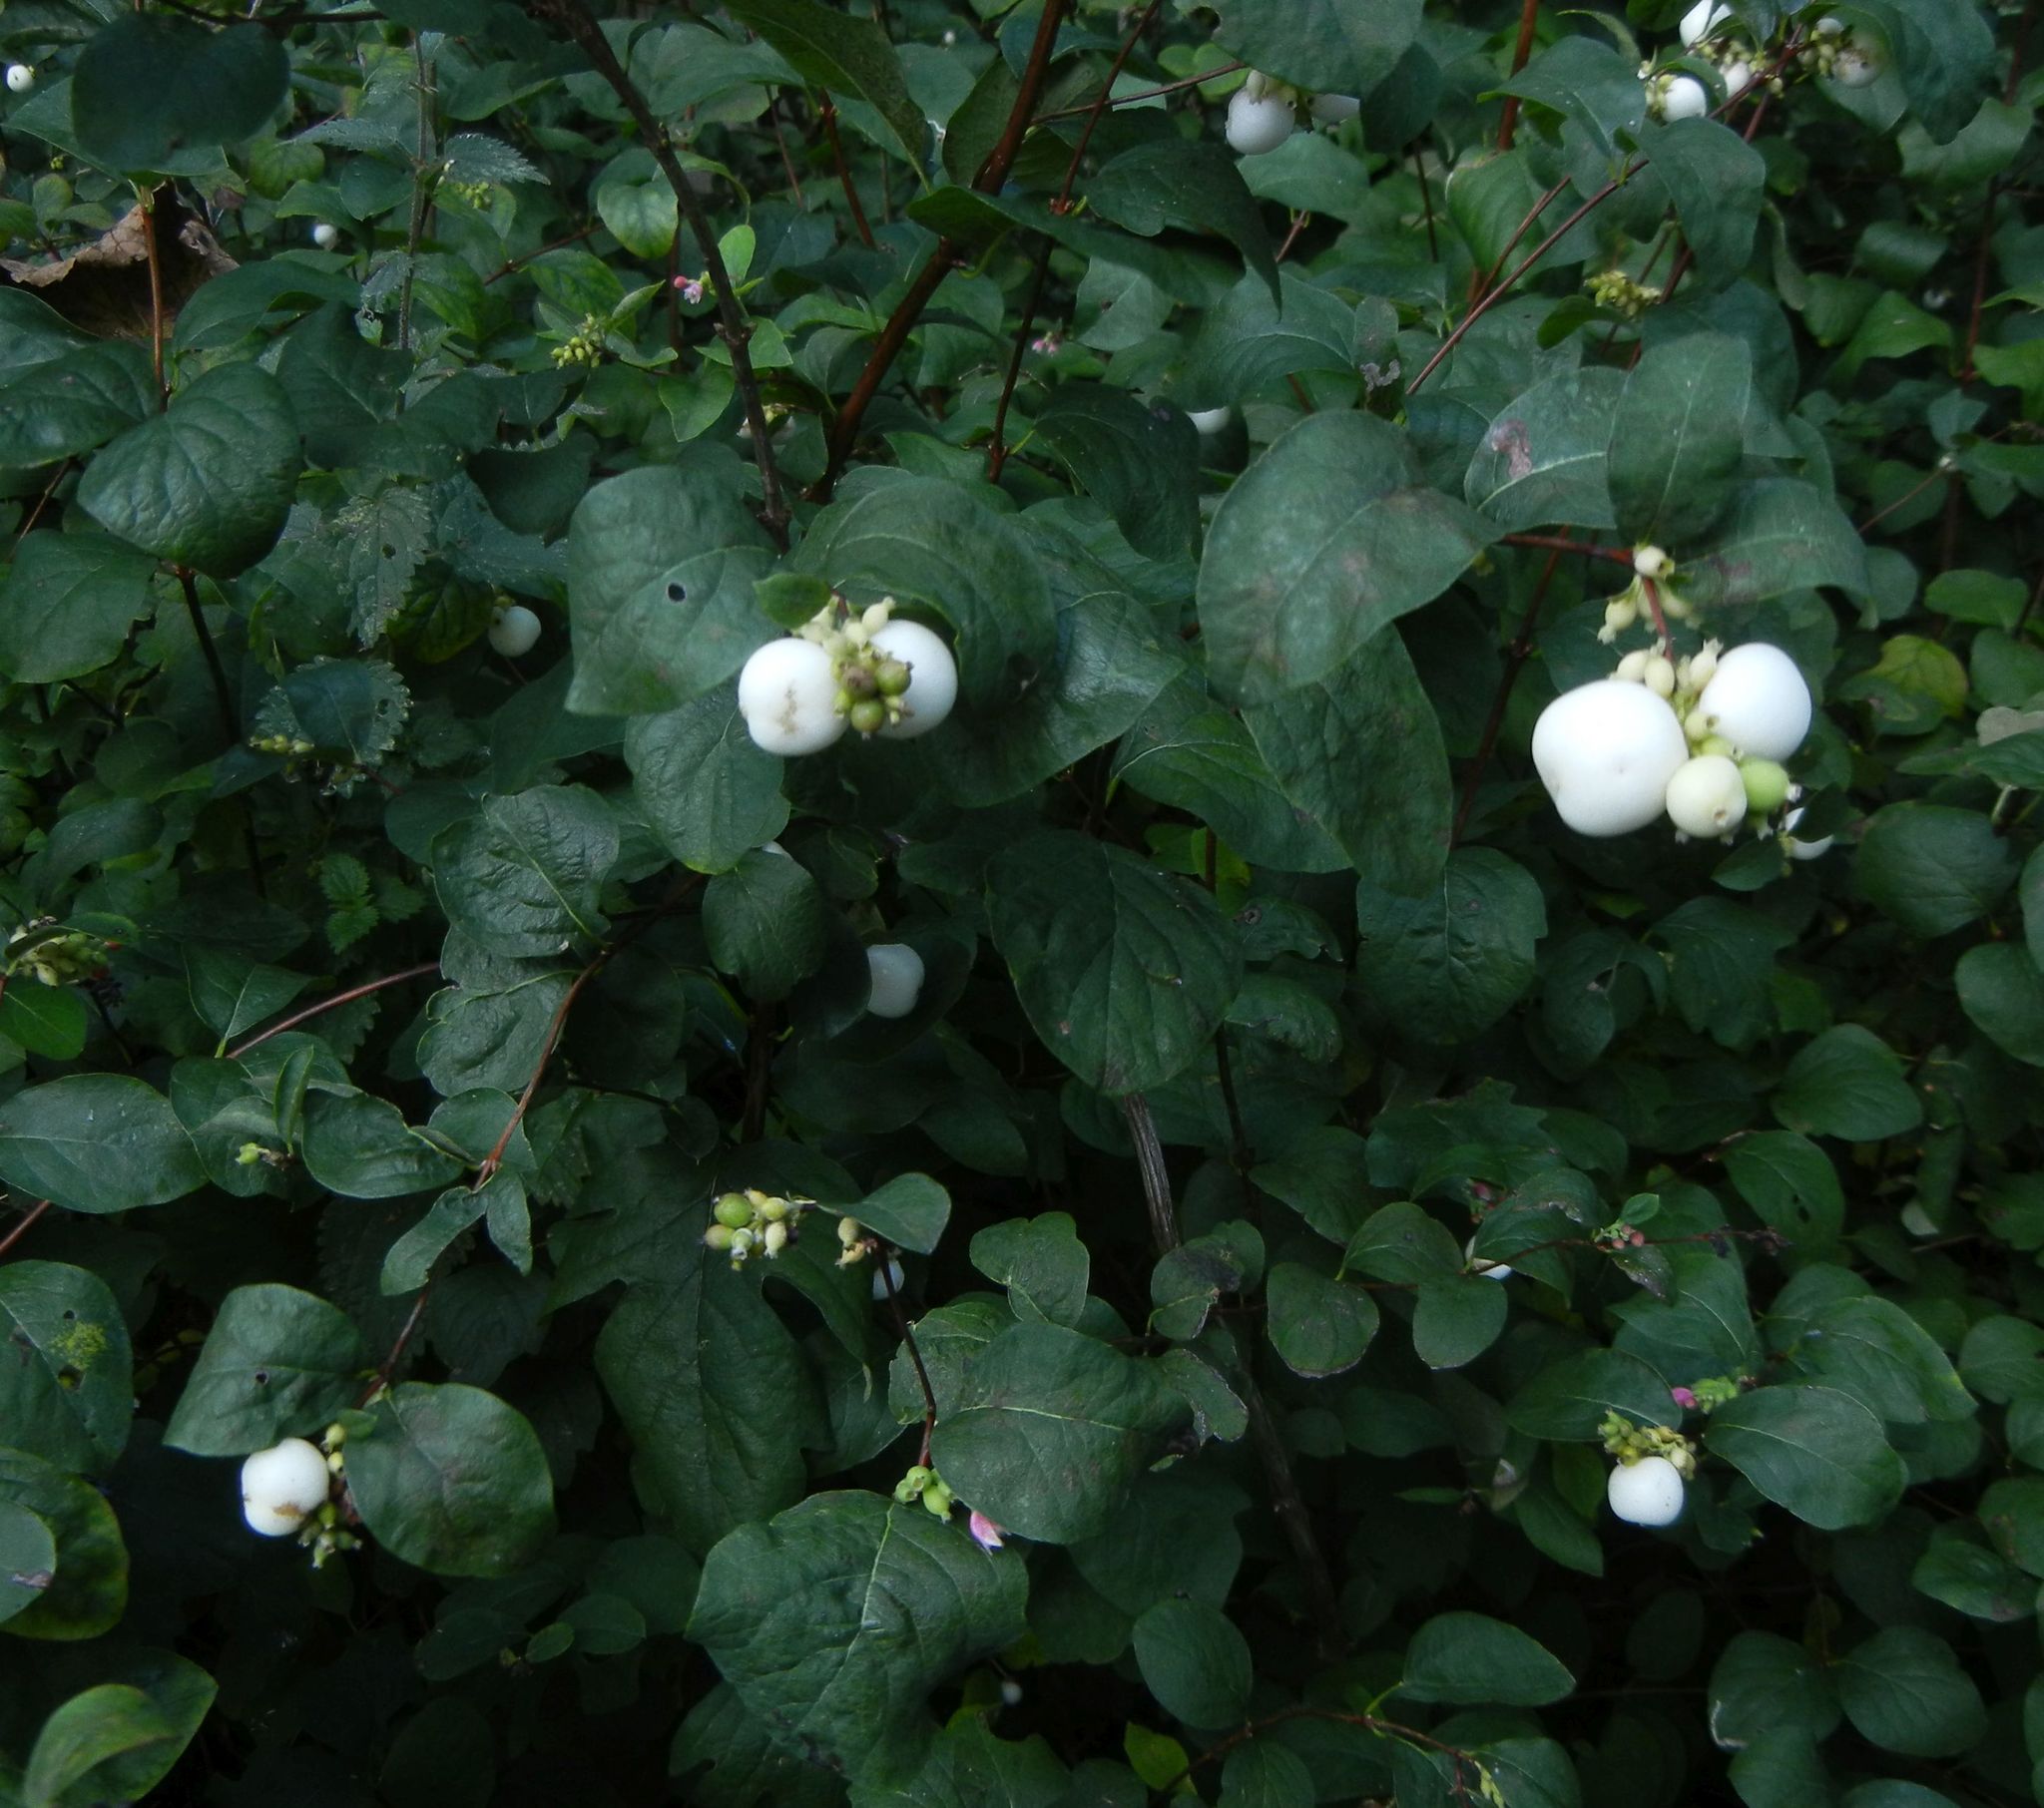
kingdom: Plantae
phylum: Tracheophyta
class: Magnoliopsida
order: Dipsacales
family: Caprifoliaceae
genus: Symphoricarpos
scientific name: Symphoricarpos albus
